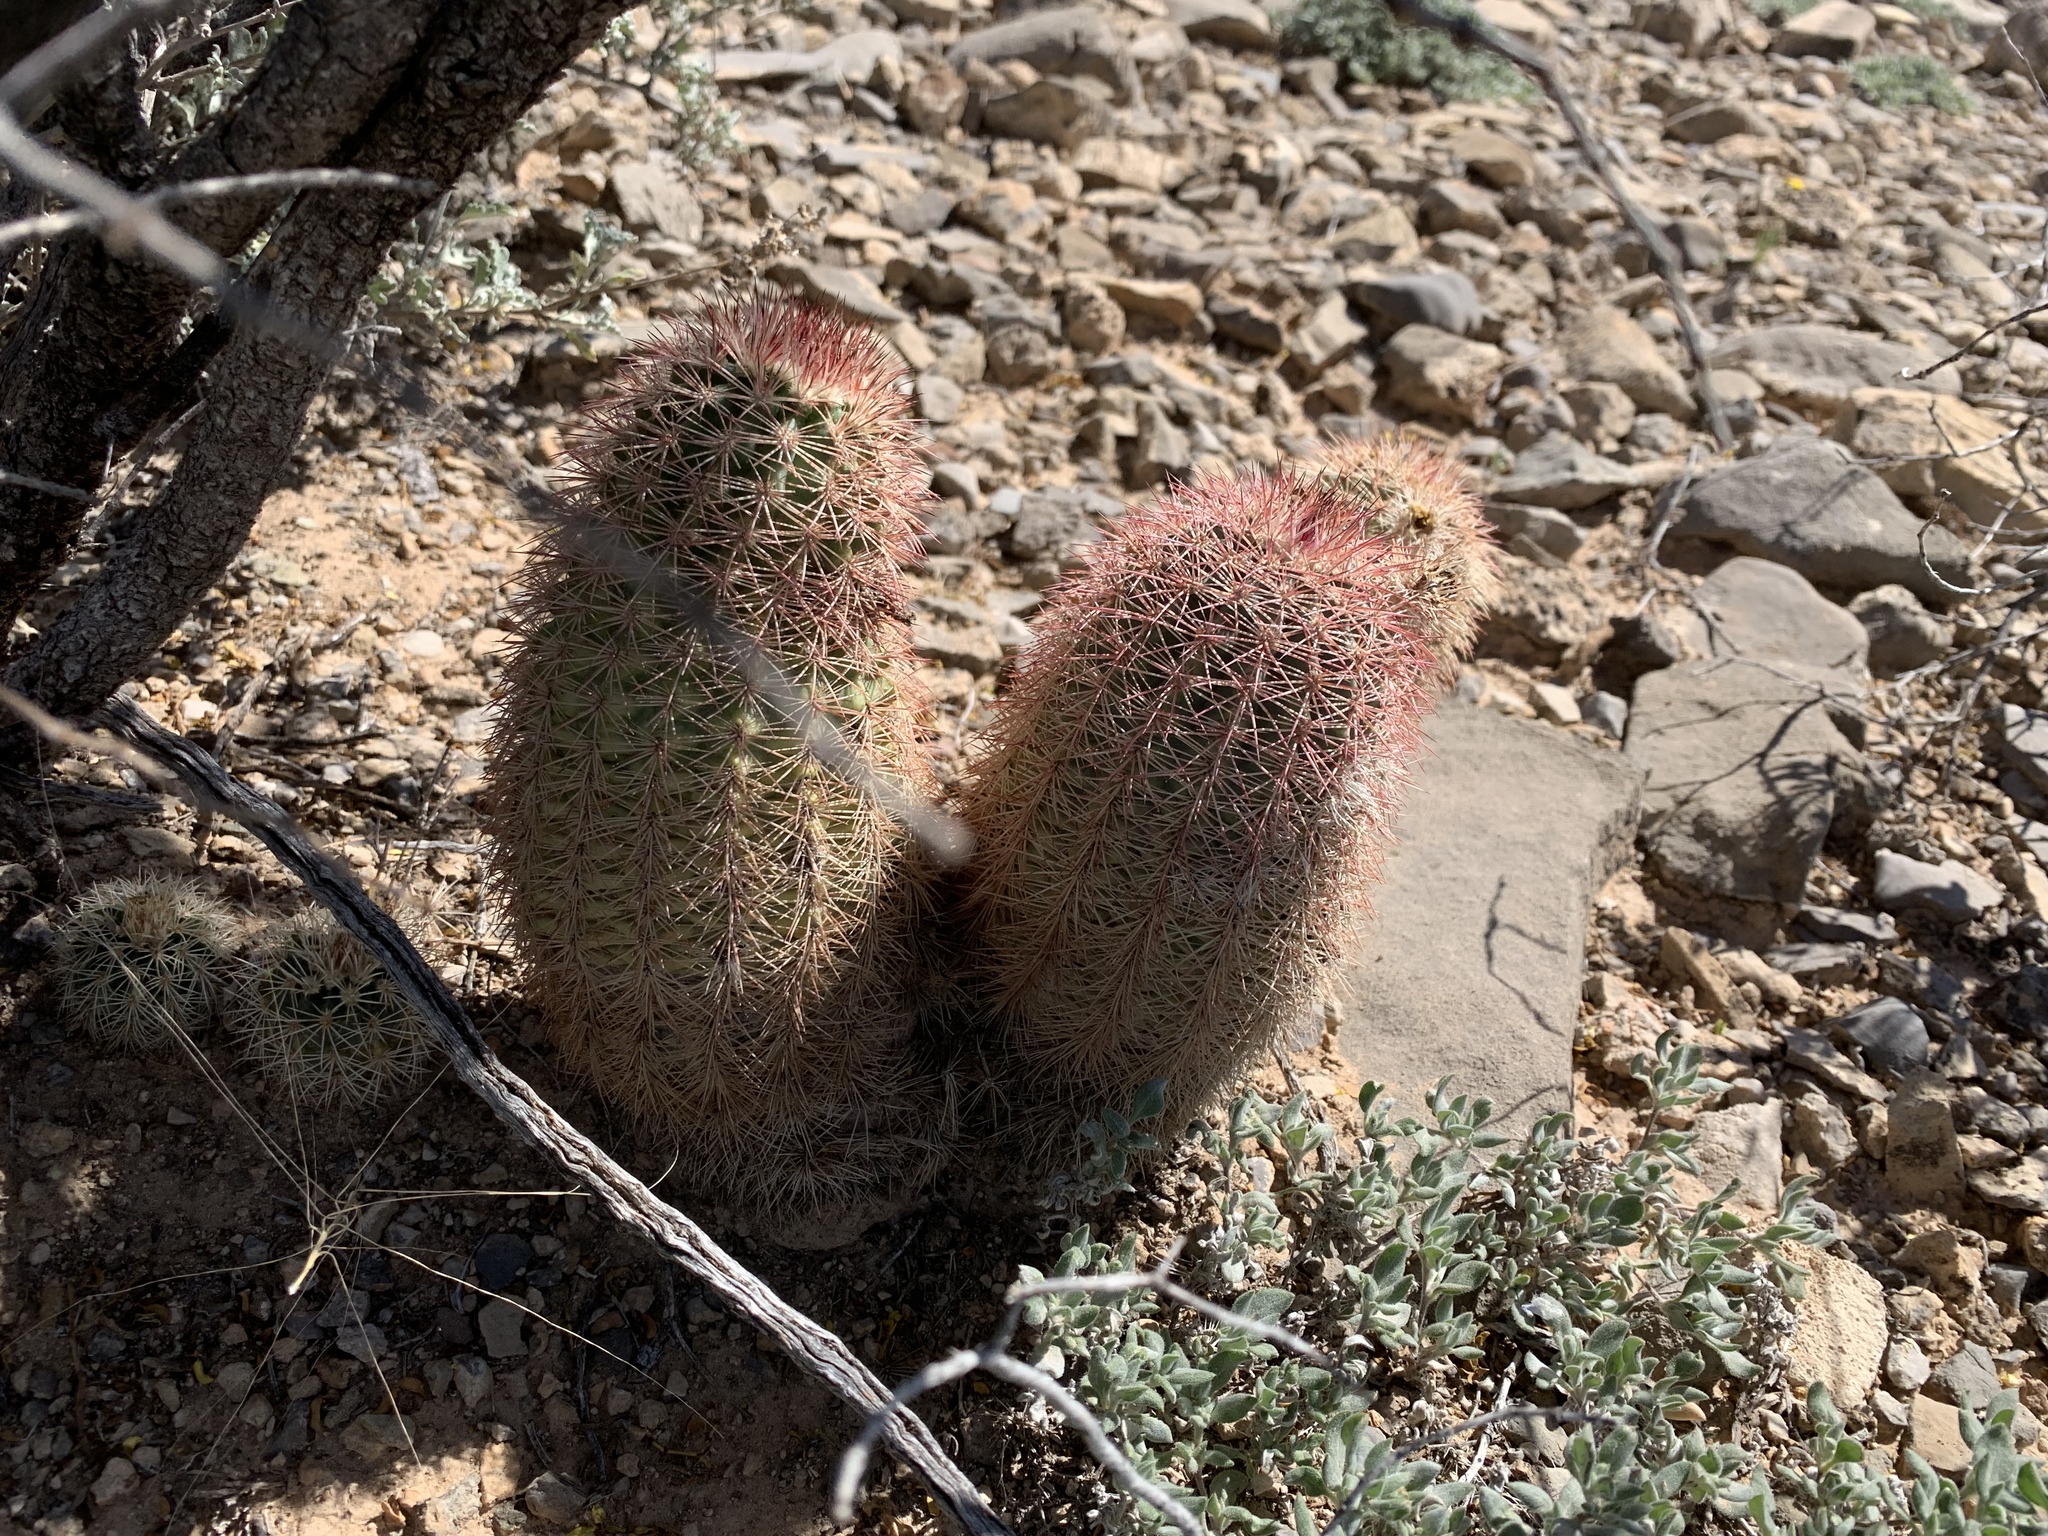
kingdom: Plantae
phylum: Tracheophyta
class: Magnoliopsida
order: Caryophyllales
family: Cactaceae
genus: Echinocereus
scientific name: Echinocereus dasyacanthus
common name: Spiny hedgehog cactus
